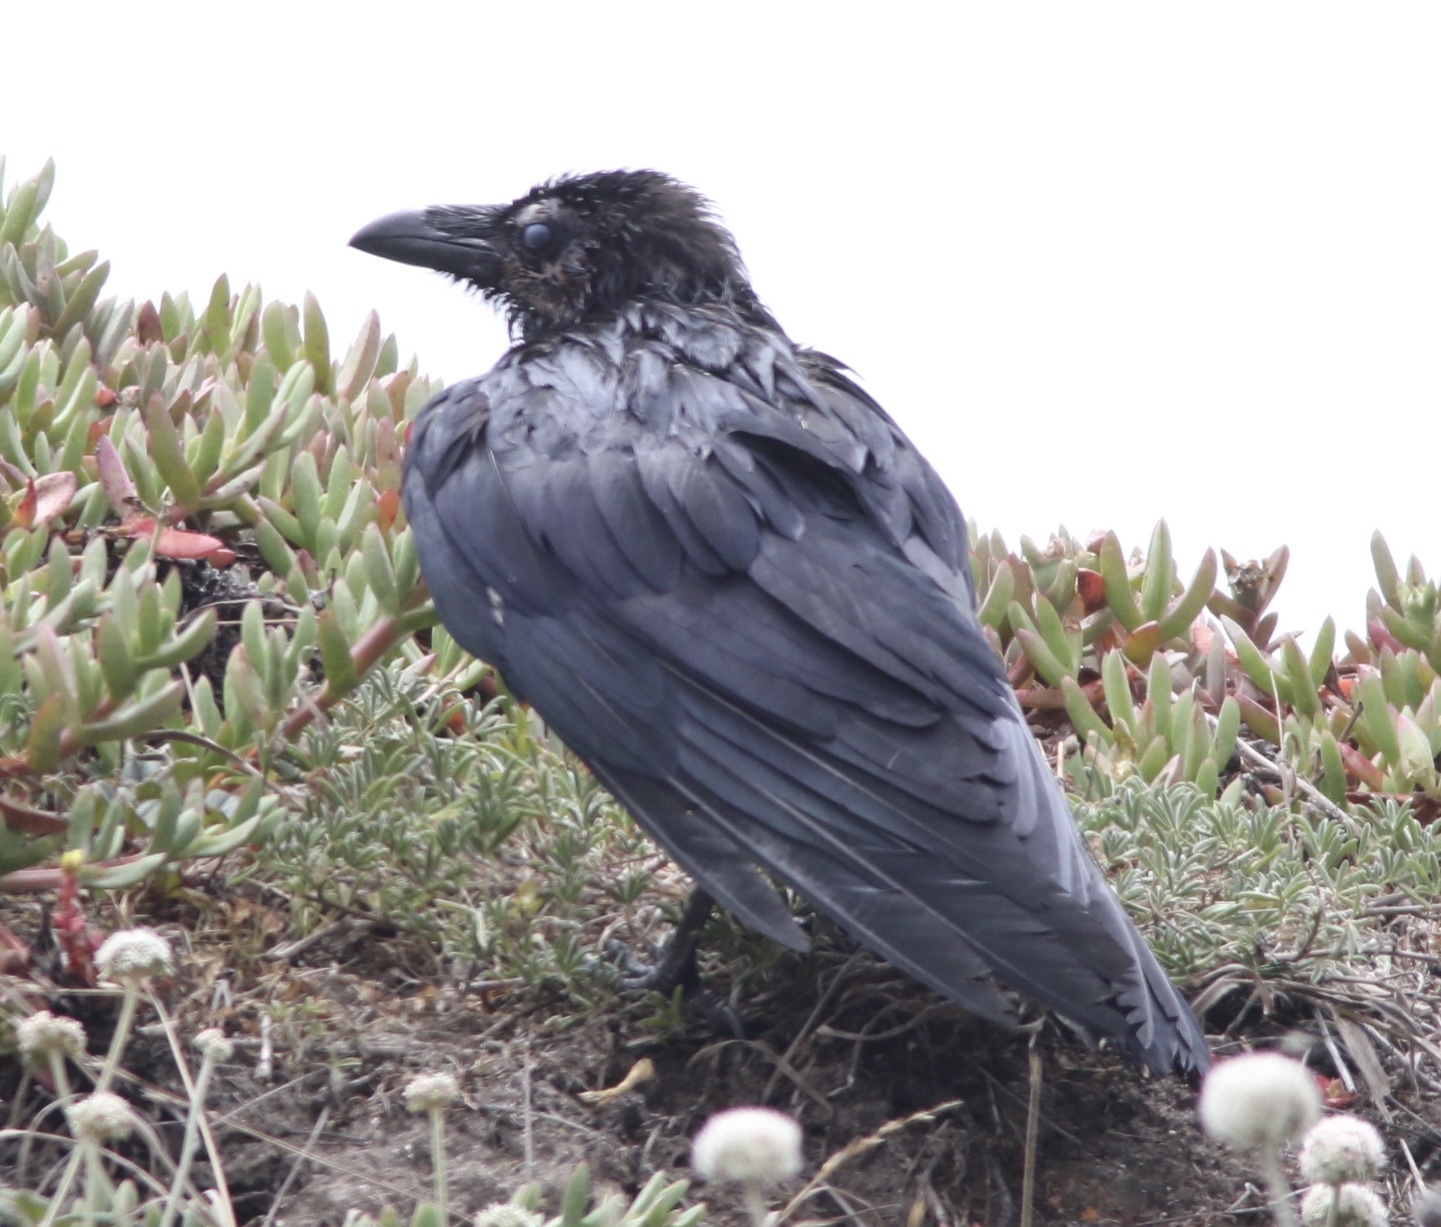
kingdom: Animalia
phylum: Chordata
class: Aves
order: Passeriformes
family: Corvidae
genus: Corvus
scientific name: Corvus corax
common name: Common raven
